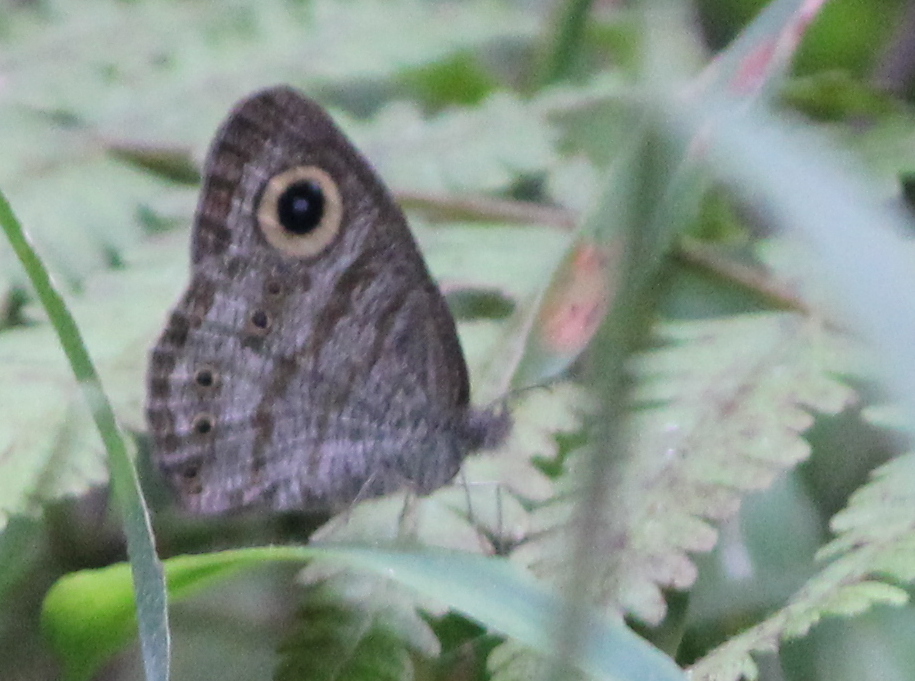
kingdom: Animalia
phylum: Arthropoda
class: Insecta
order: Lepidoptera
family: Nymphalidae
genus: Ypthima
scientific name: Ypthima baldus
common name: Common five-ring
